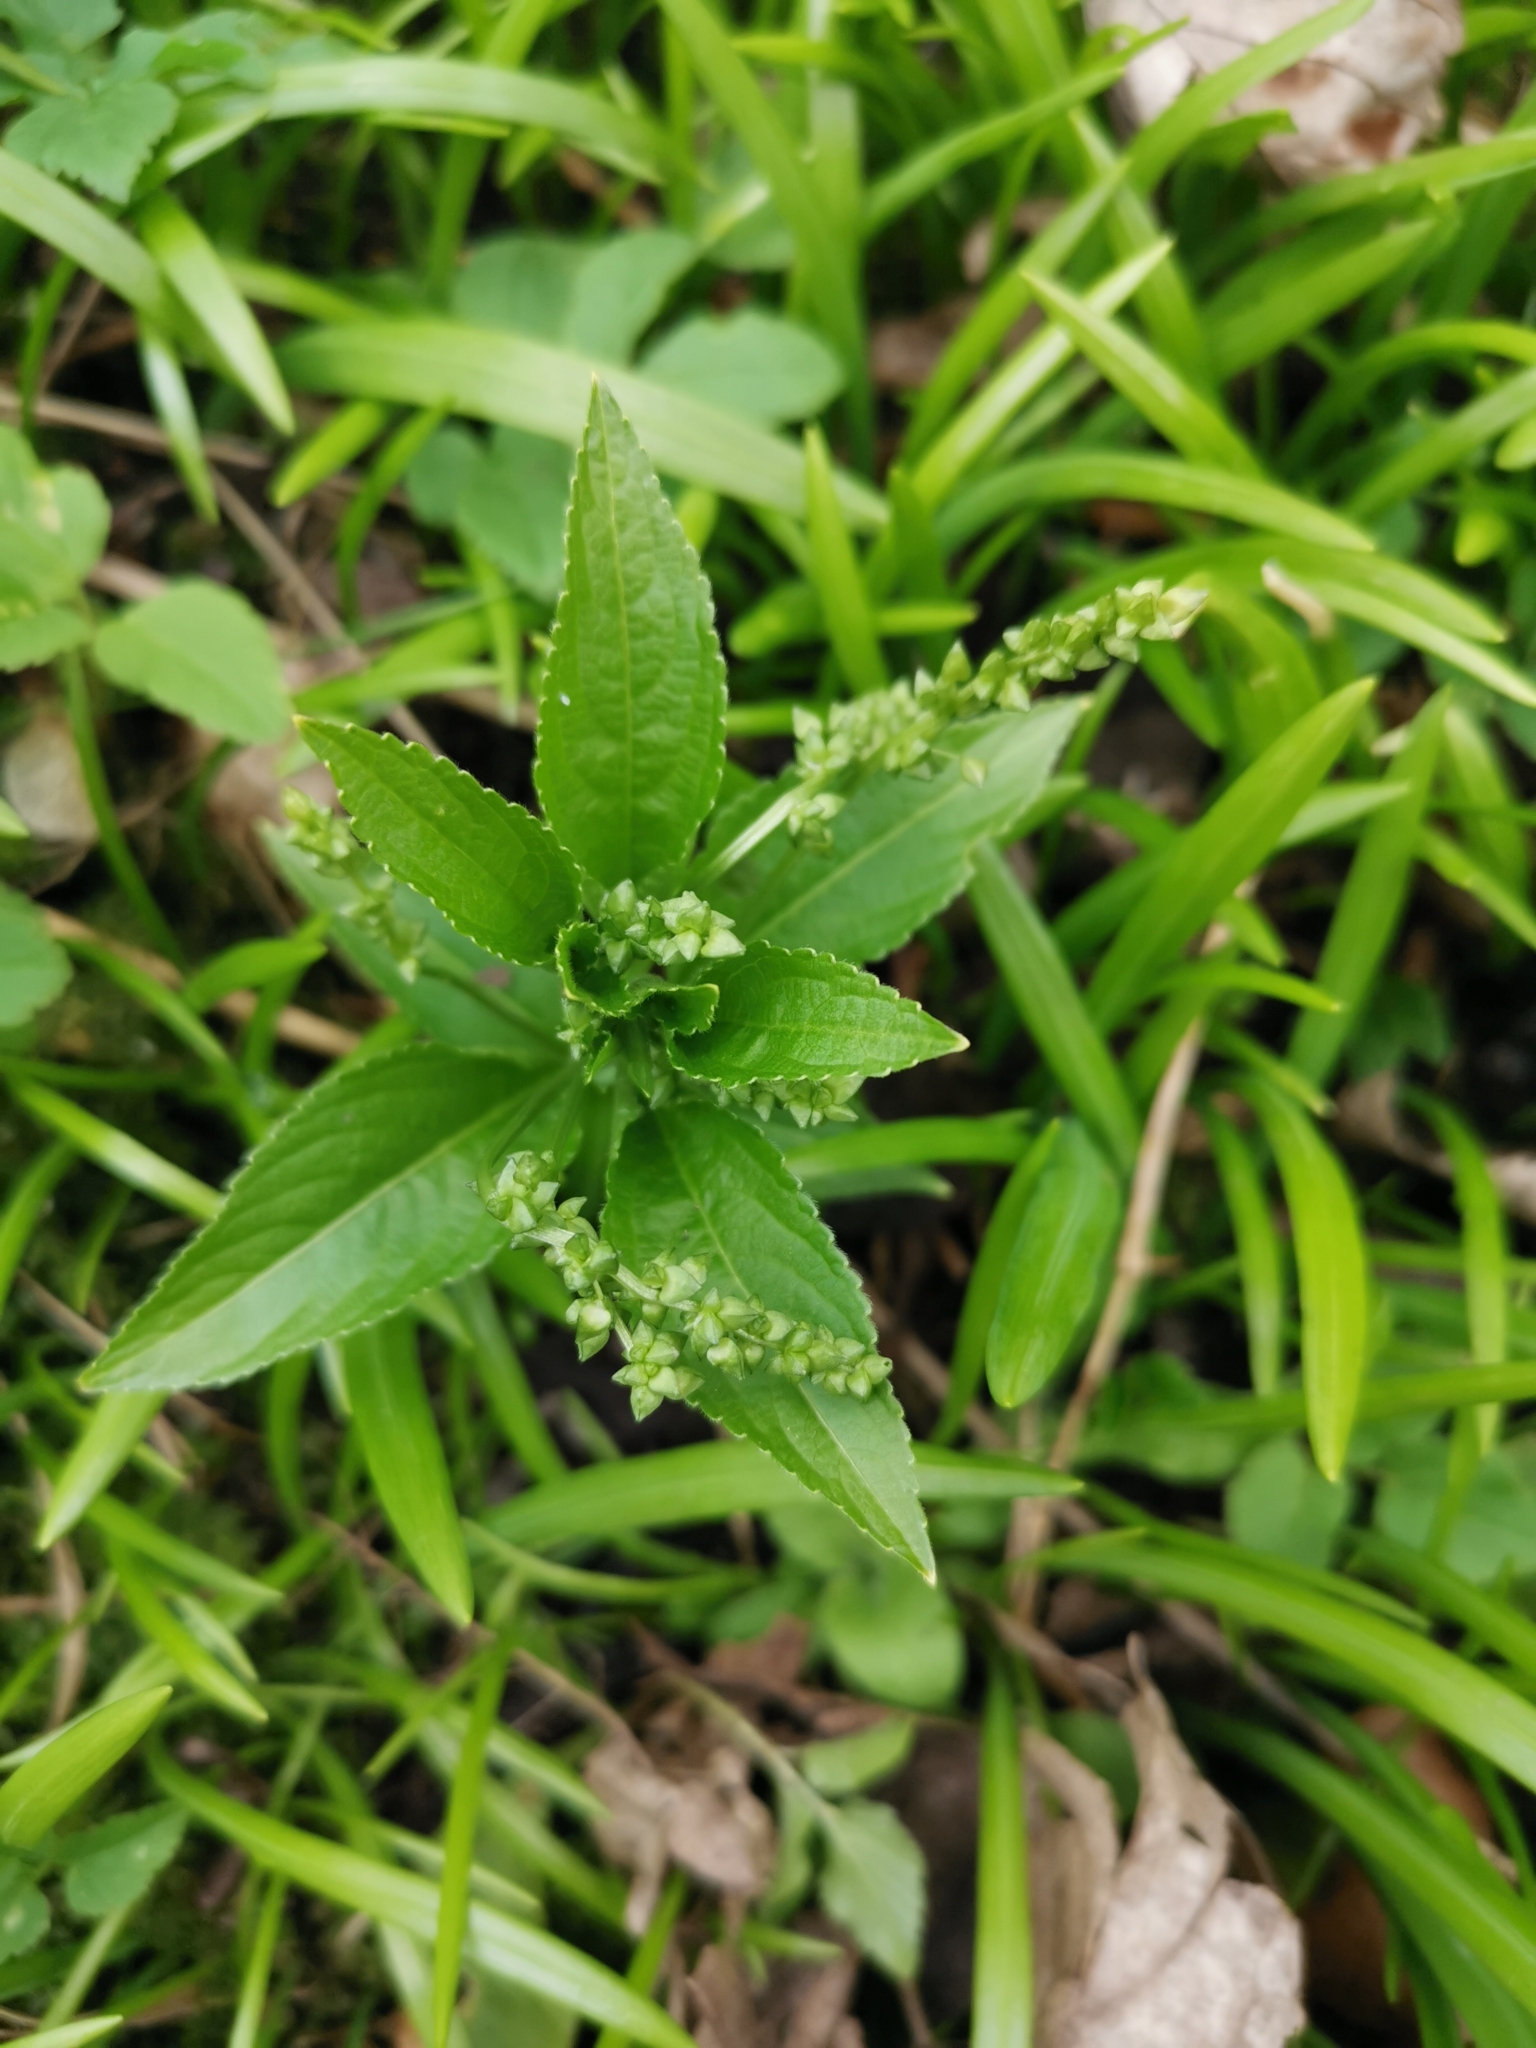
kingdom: Plantae
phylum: Tracheophyta
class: Magnoliopsida
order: Malpighiales
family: Euphorbiaceae
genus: Mercurialis
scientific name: Mercurialis perennis
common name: Dog mercury
